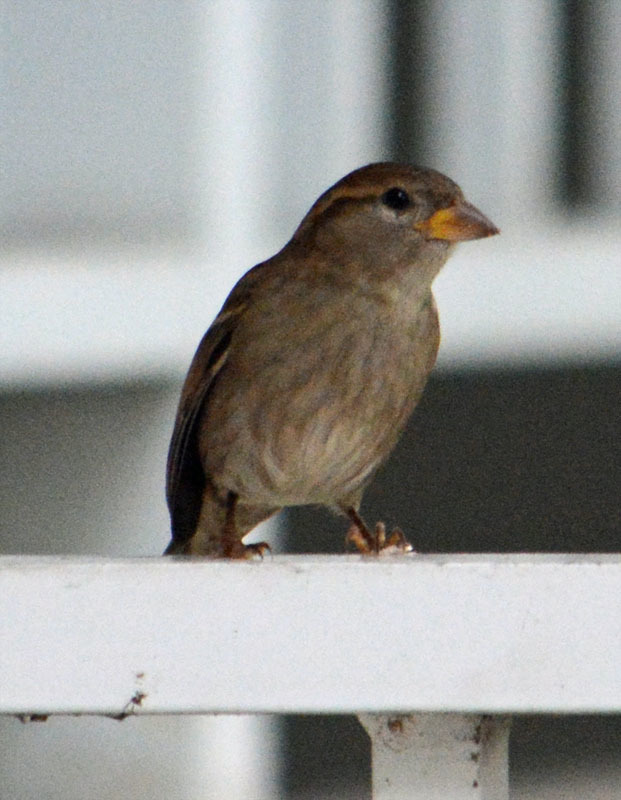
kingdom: Animalia
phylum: Chordata
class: Aves
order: Passeriformes
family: Passeridae
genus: Passer
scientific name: Passer domesticus
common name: House sparrow
